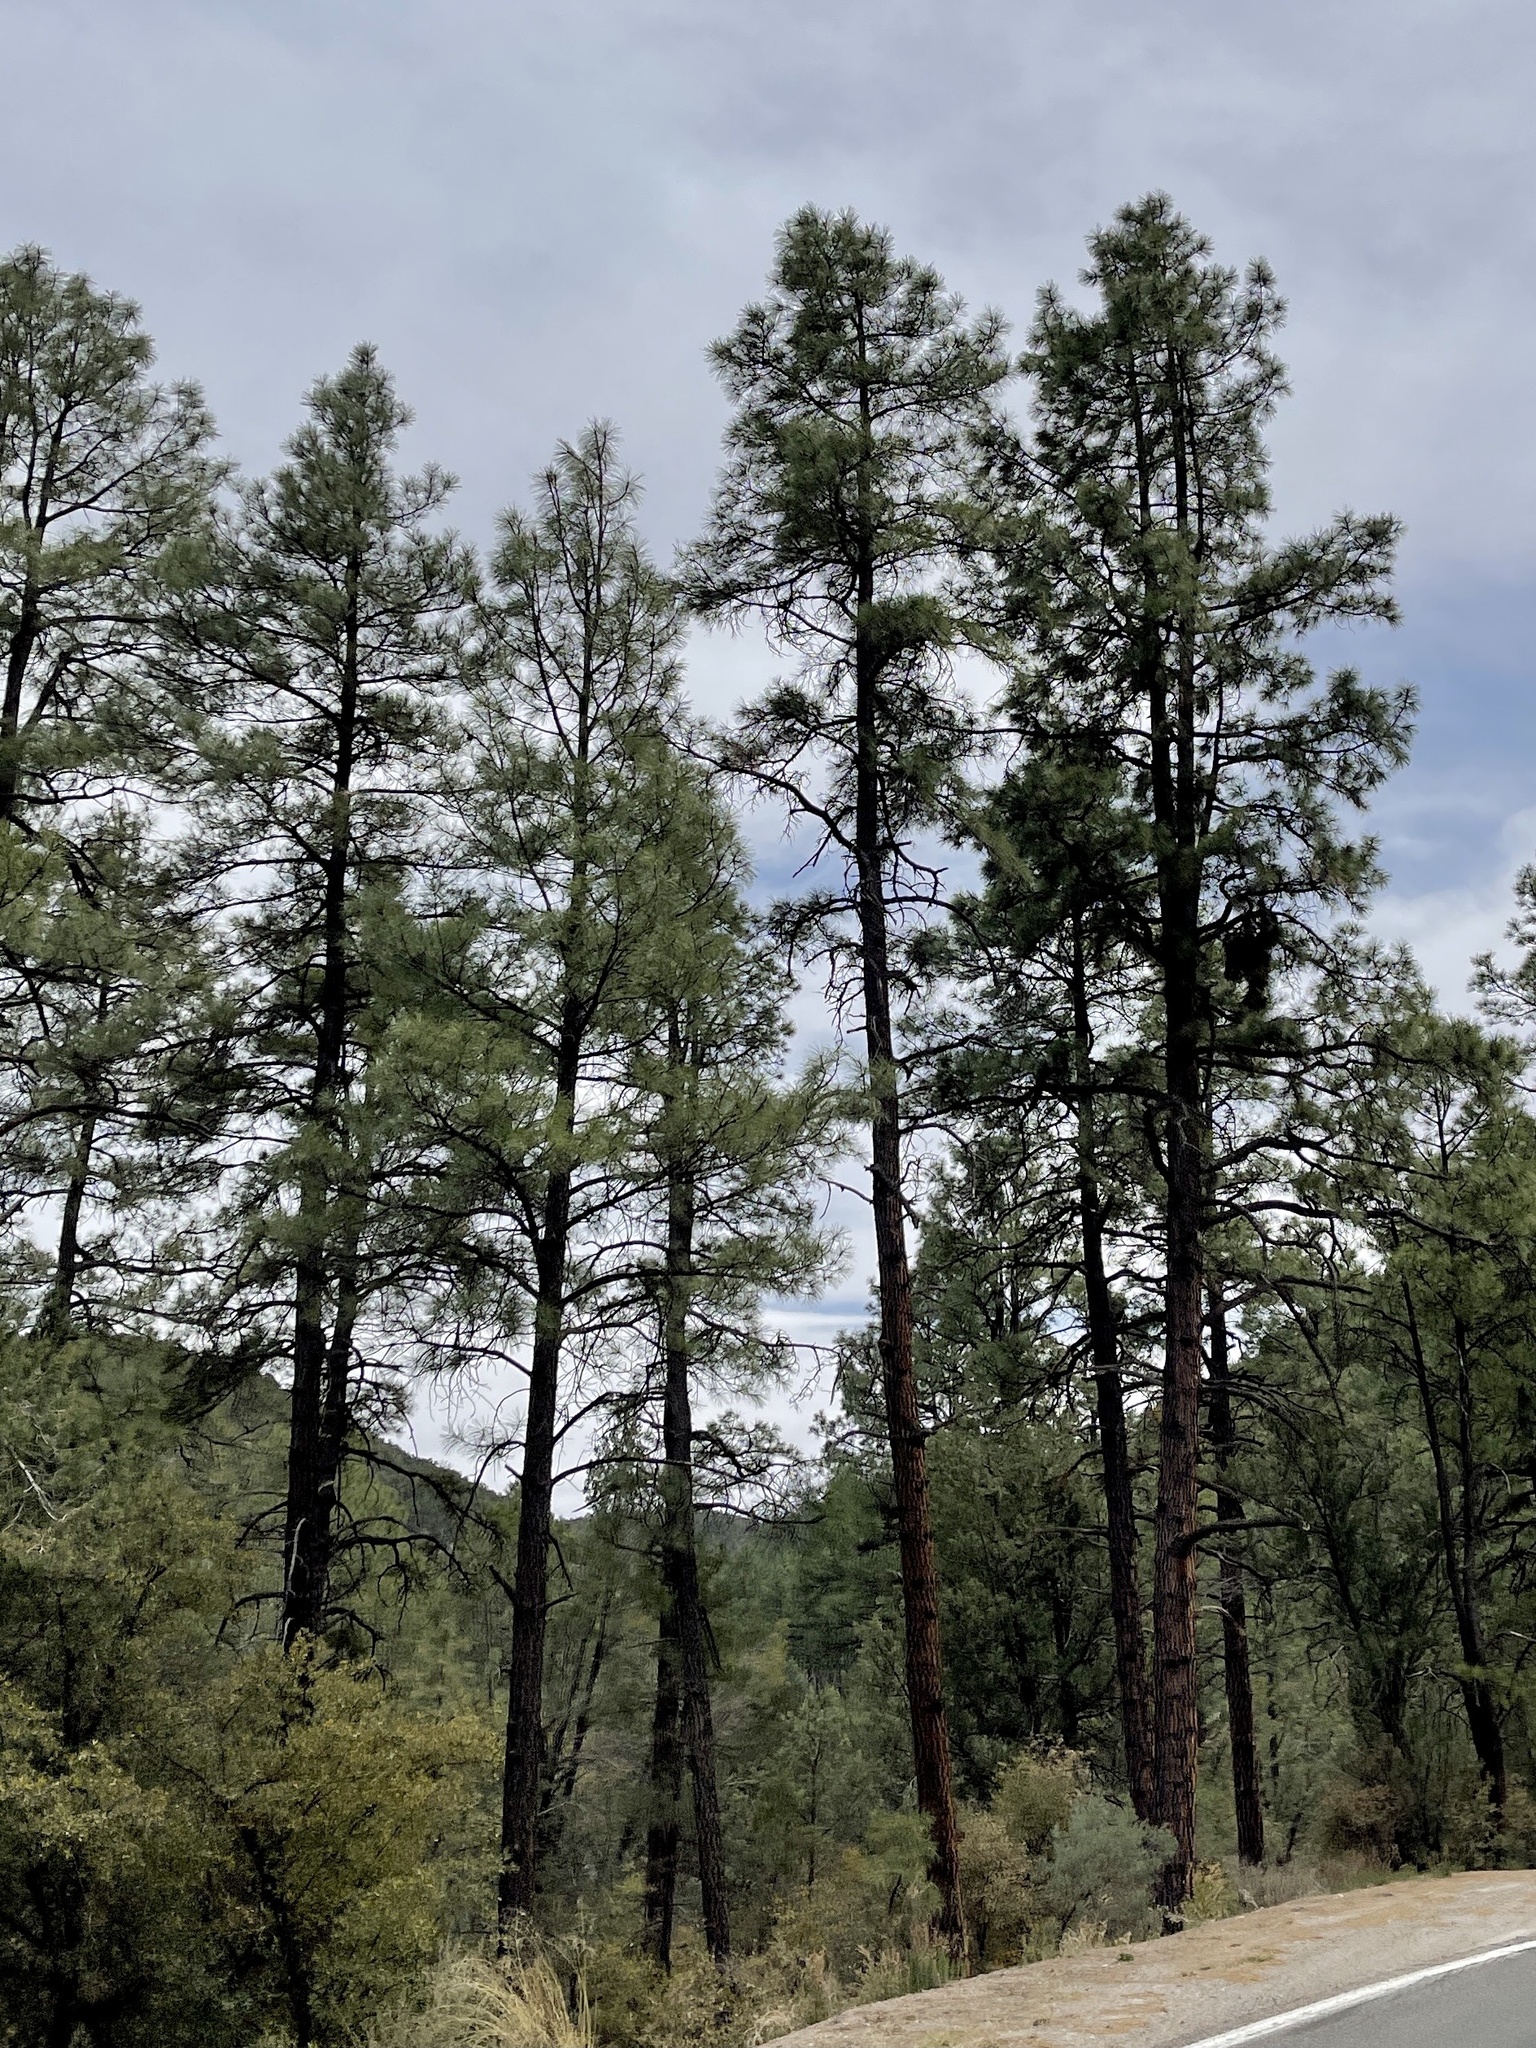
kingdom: Plantae
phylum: Tracheophyta
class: Pinopsida
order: Pinales
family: Pinaceae
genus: Pinus
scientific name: Pinus ponderosa
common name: Western yellow-pine
